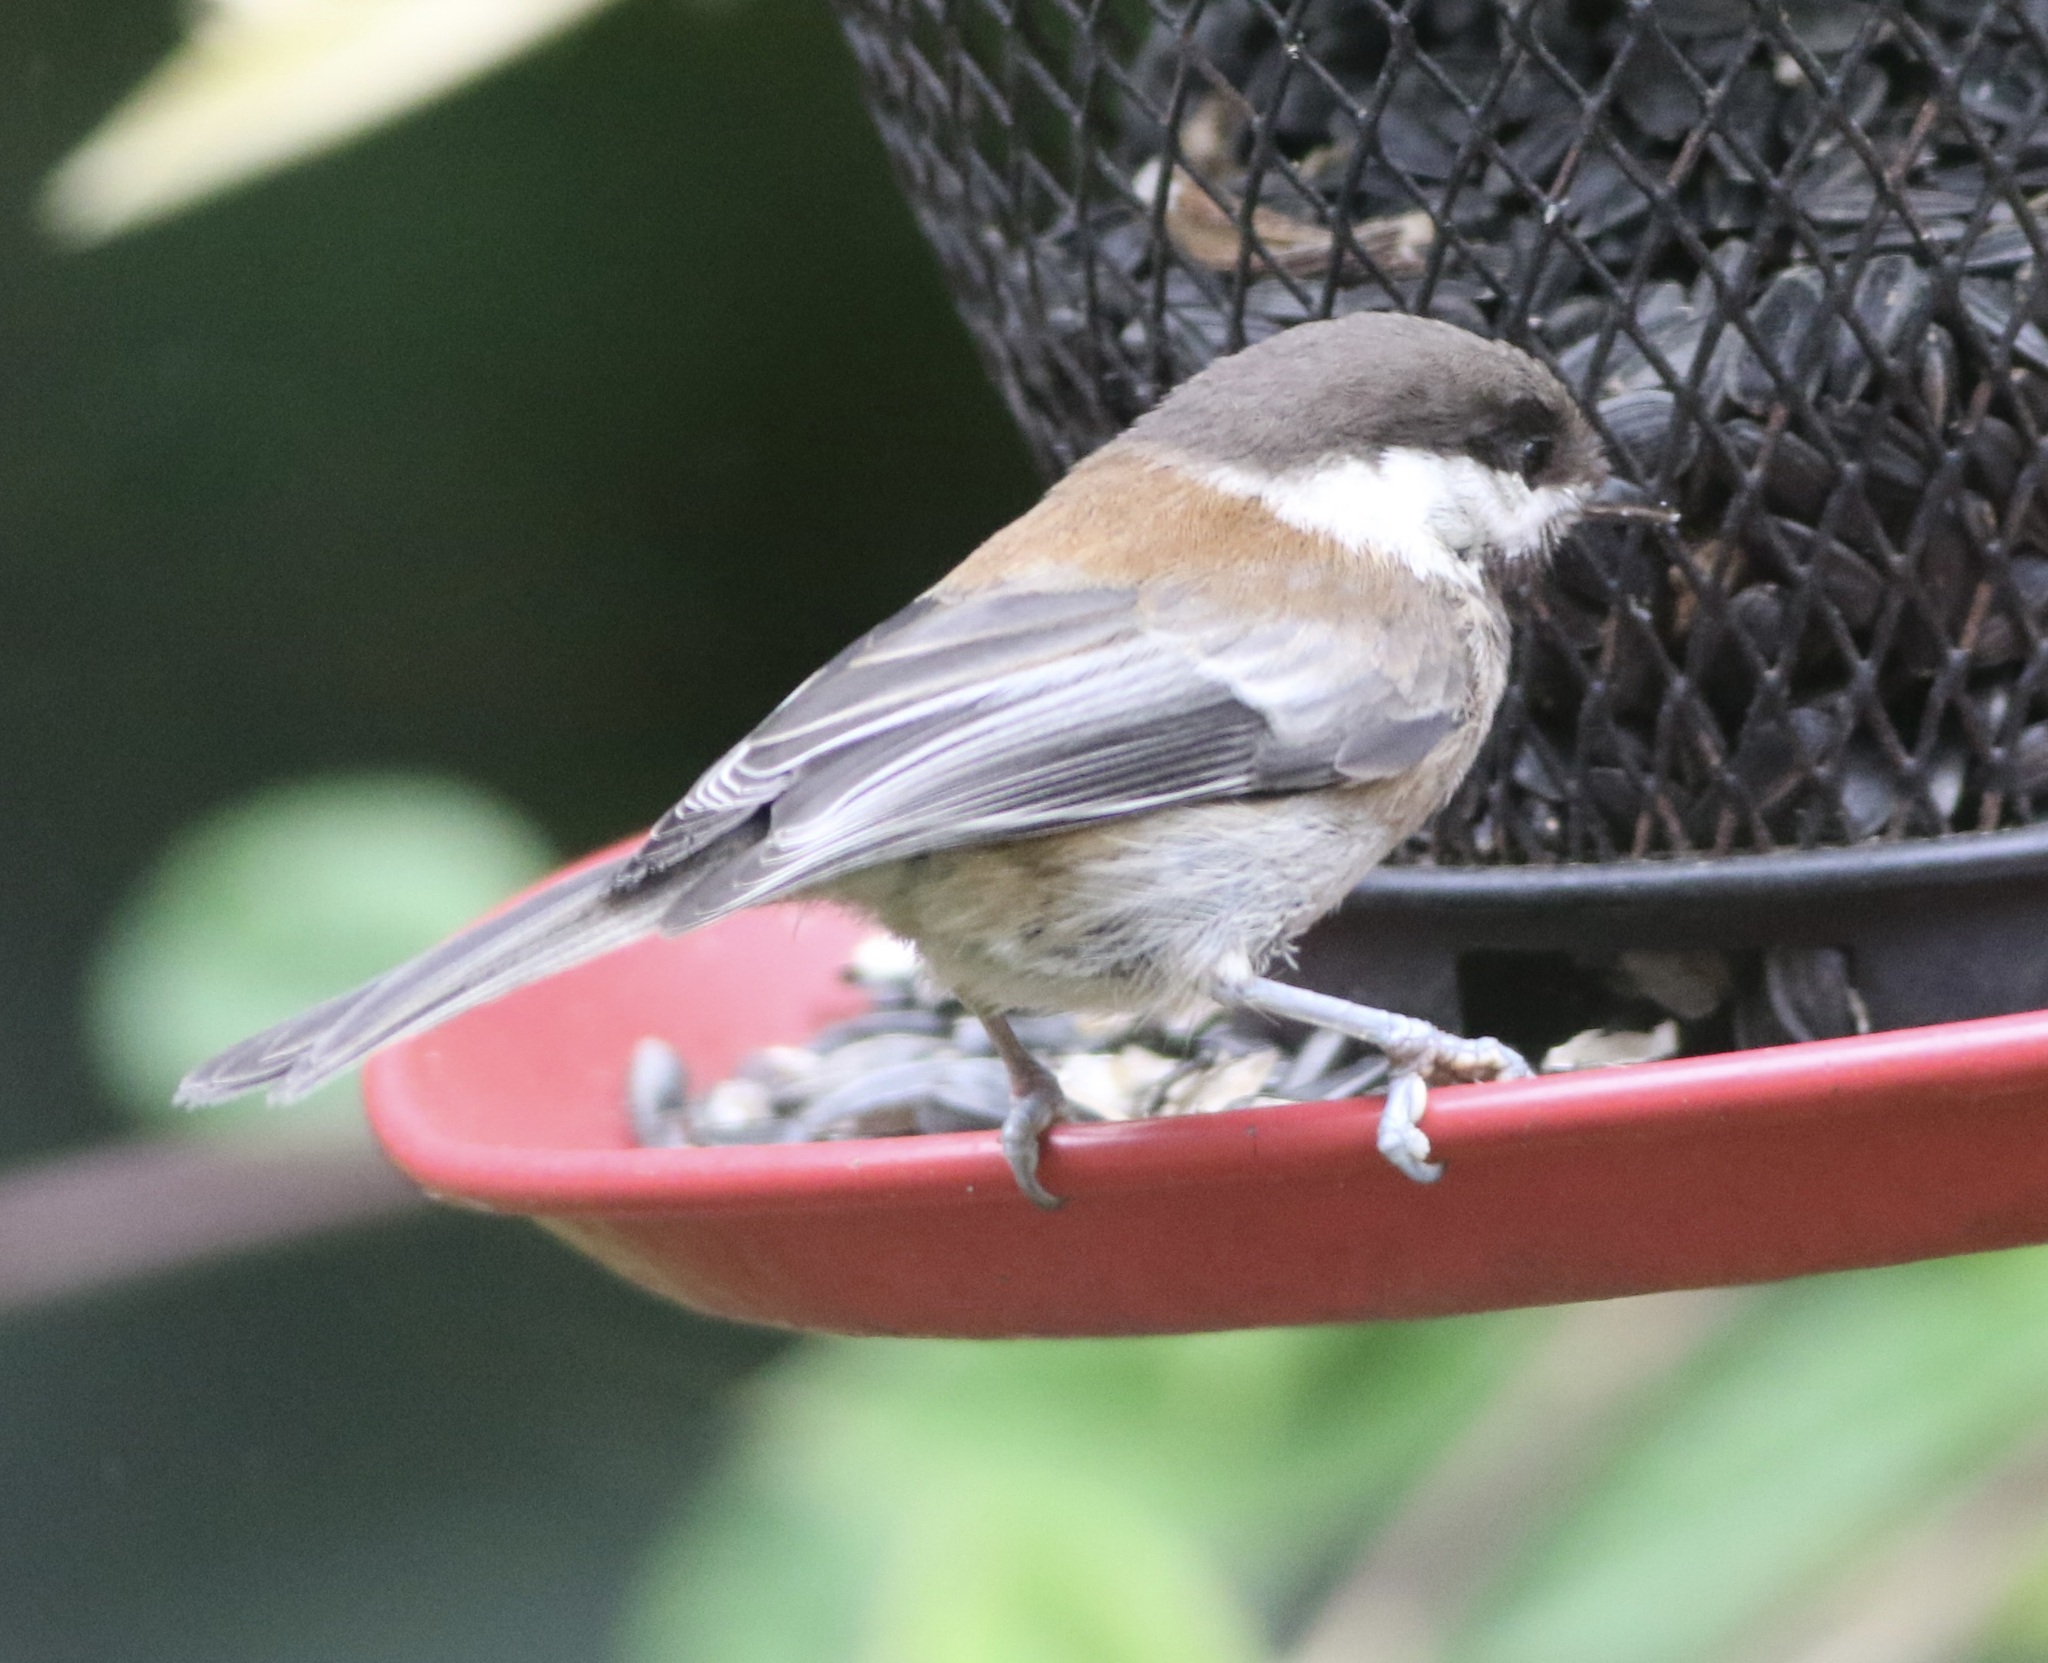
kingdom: Animalia
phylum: Chordata
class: Aves
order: Passeriformes
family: Paridae
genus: Poecile
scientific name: Poecile rufescens
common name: Chestnut-backed chickadee
